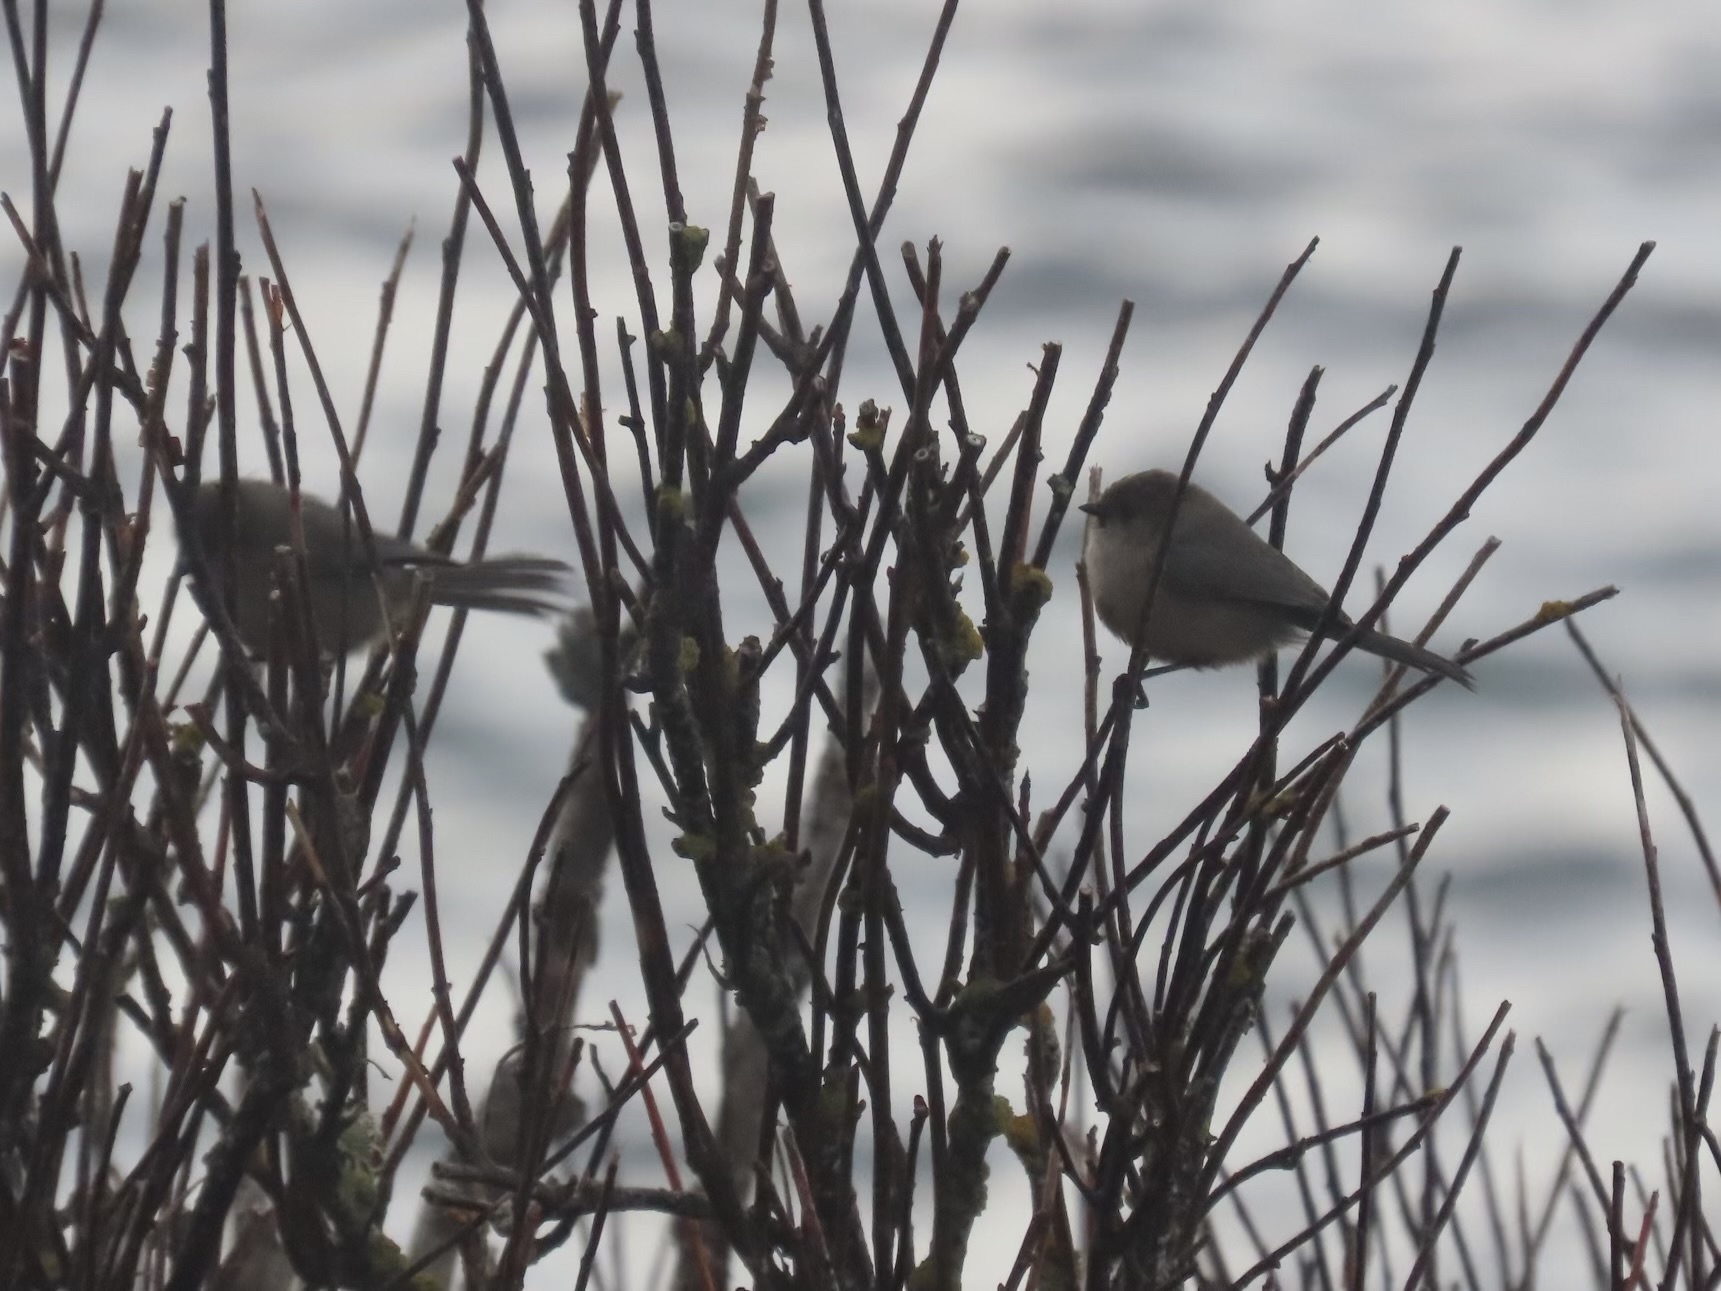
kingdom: Animalia
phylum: Chordata
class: Aves
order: Passeriformes
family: Aegithalidae
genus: Psaltriparus
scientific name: Psaltriparus minimus
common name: American bushtit
